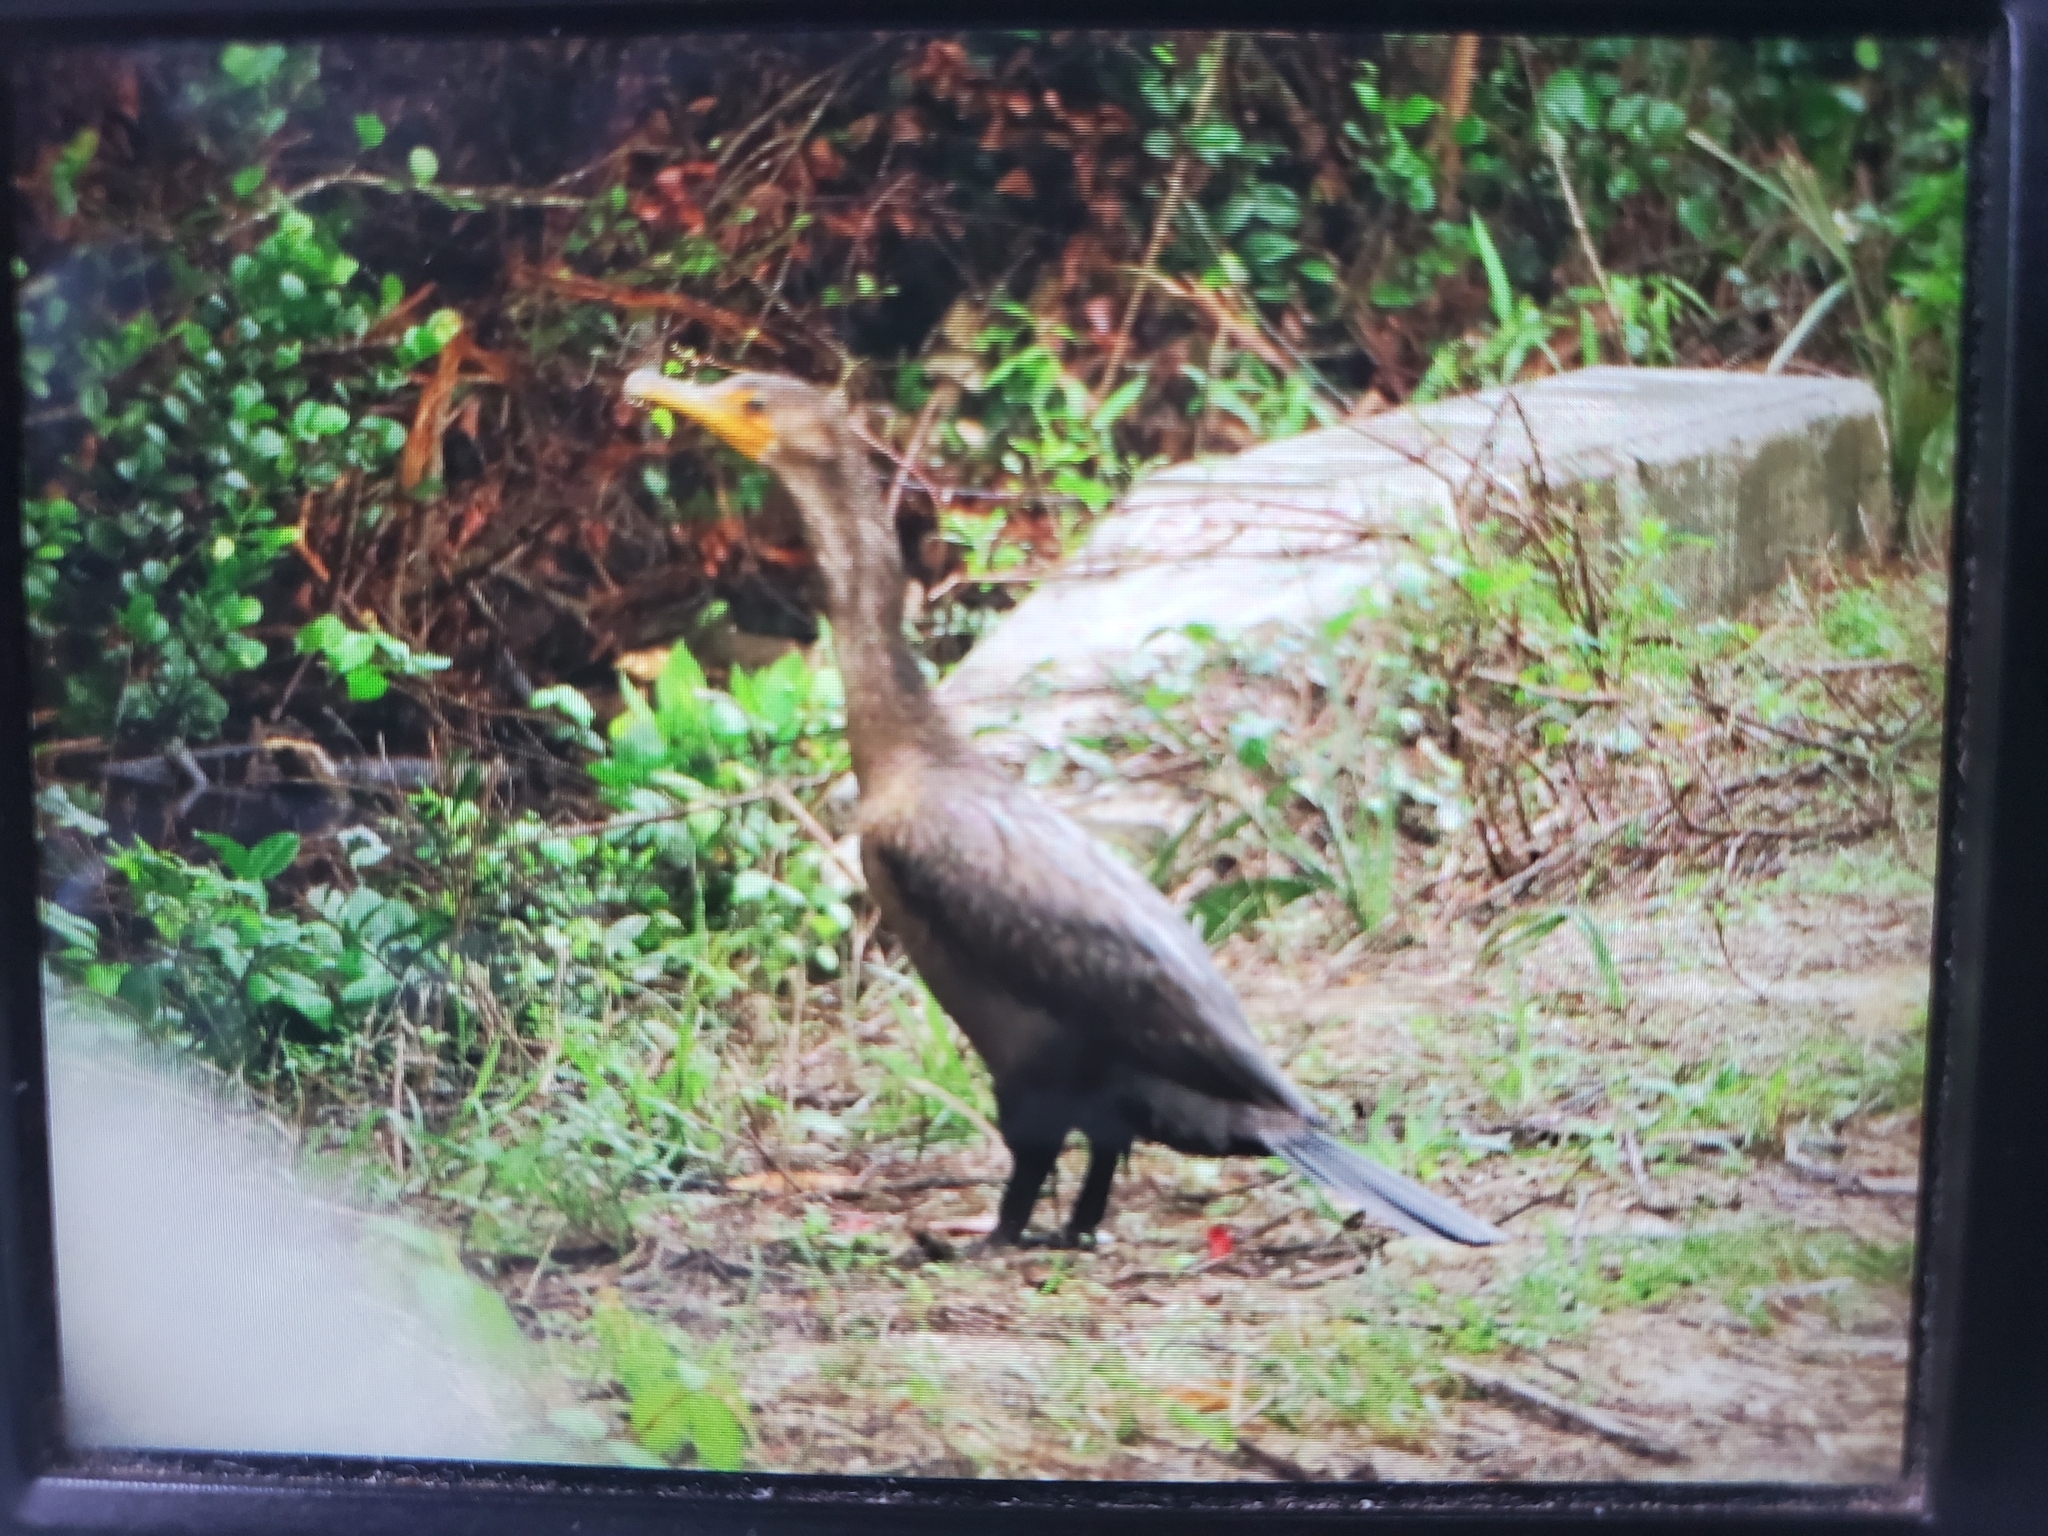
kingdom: Animalia
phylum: Chordata
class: Aves
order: Suliformes
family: Phalacrocoracidae
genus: Phalacrocorax
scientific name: Phalacrocorax auritus
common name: Double-crested cormorant
